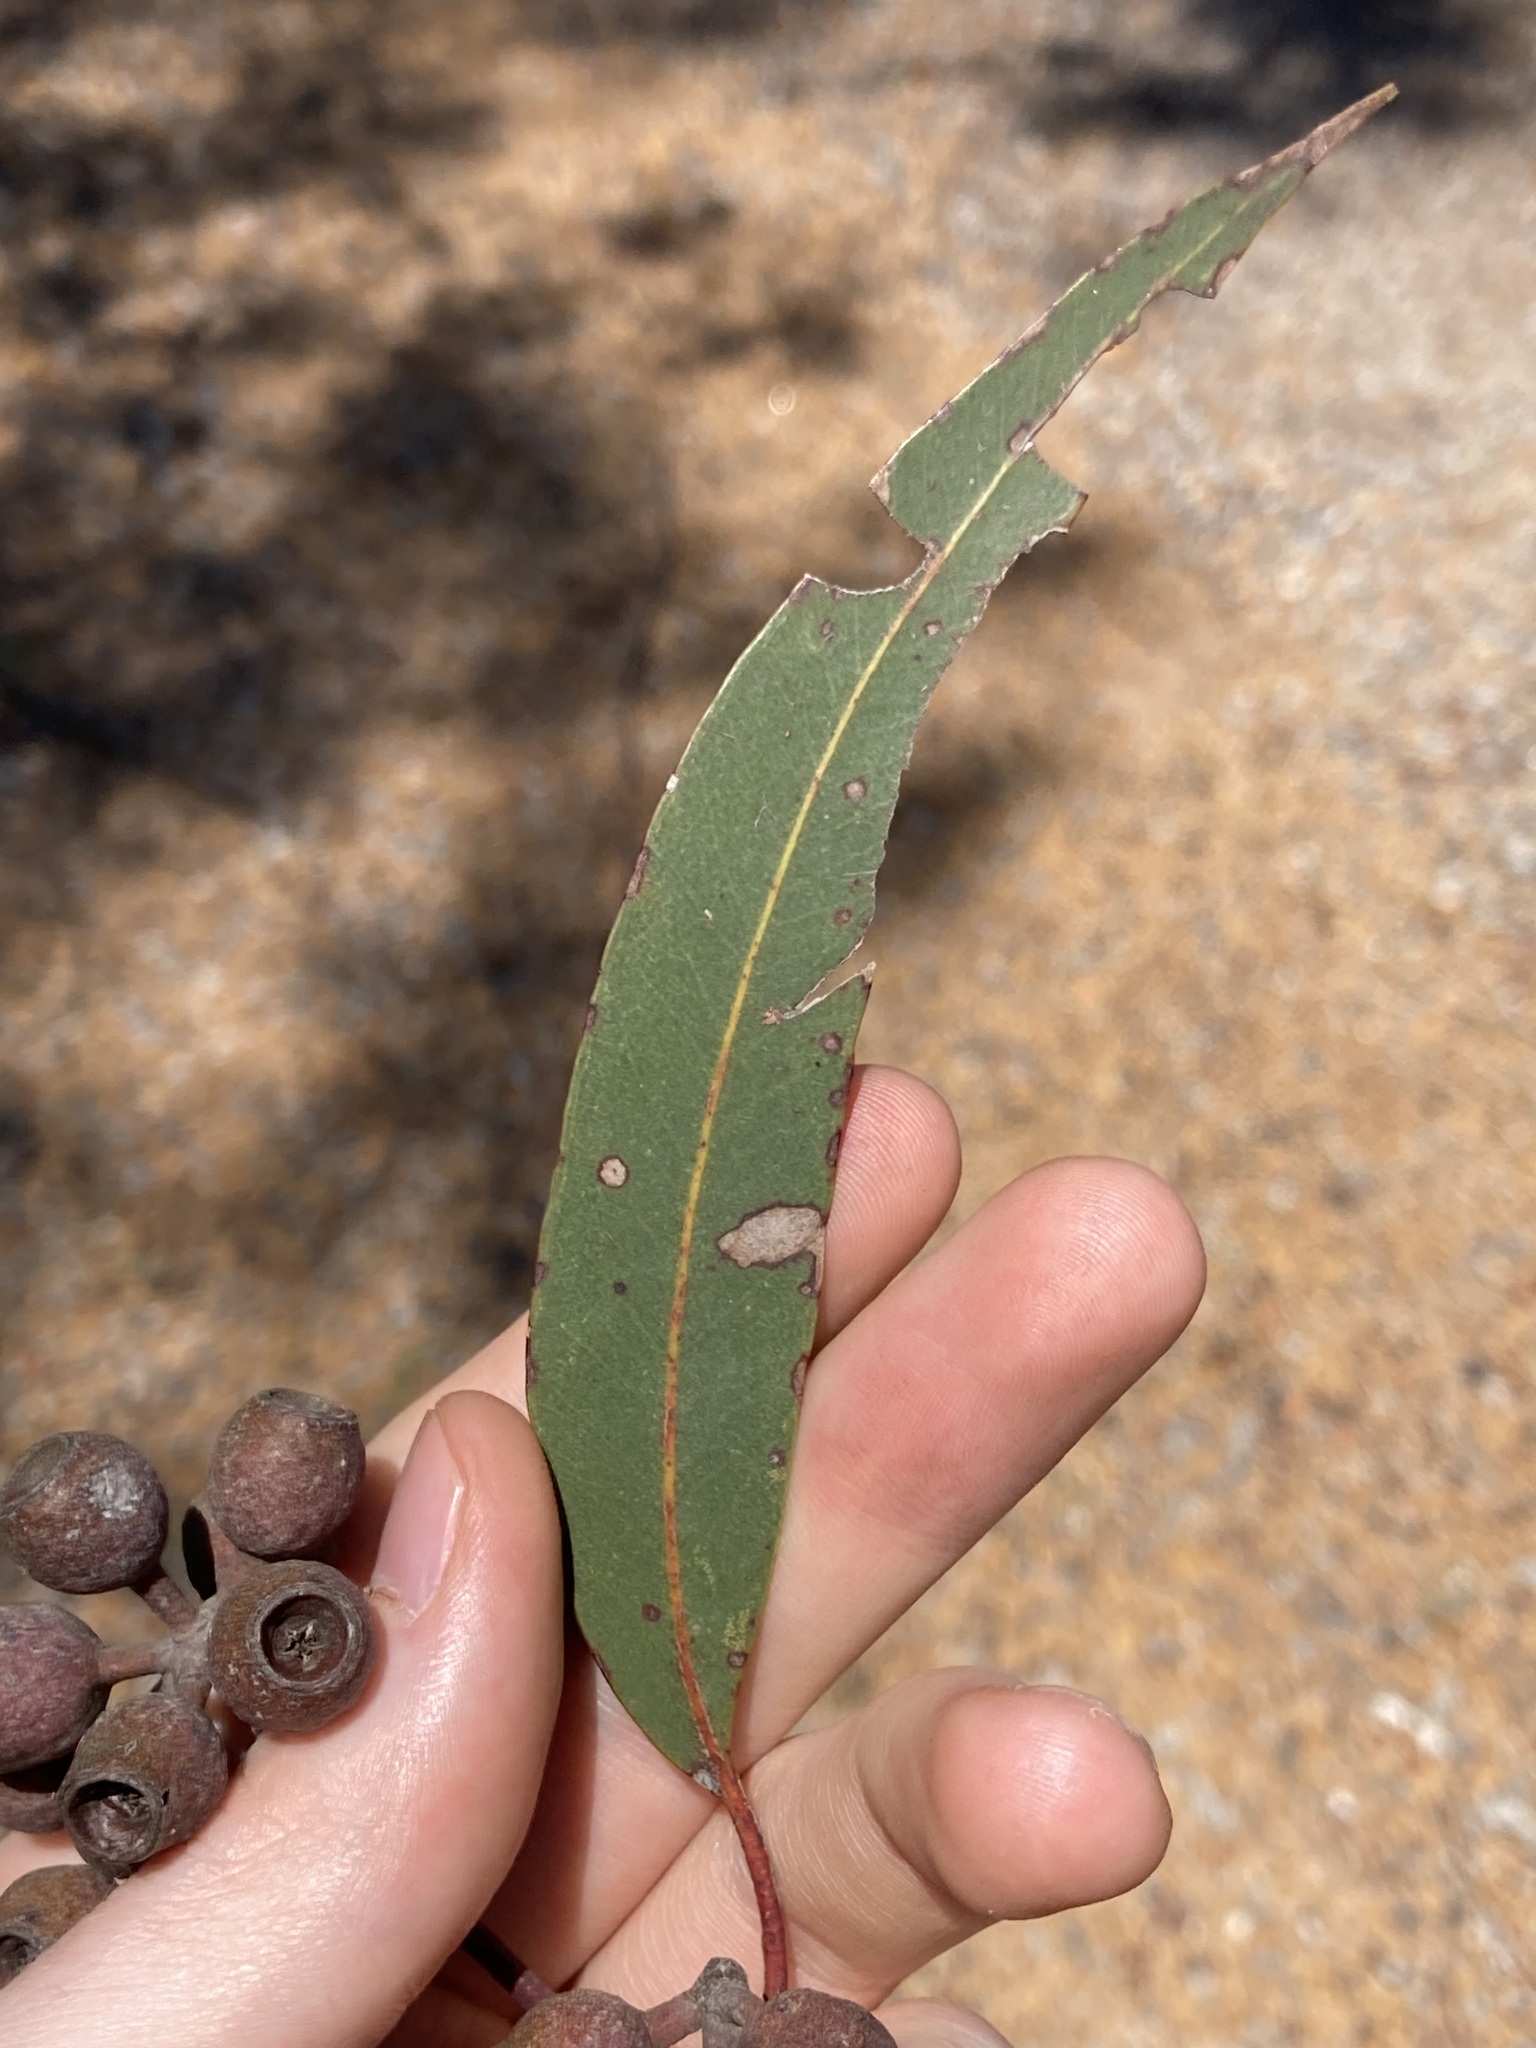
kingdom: Plantae
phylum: Tracheophyta
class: Magnoliopsida
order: Myrtales
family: Myrtaceae
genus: Eucalyptus
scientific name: Eucalyptus patens
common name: Swan river blackbutt
